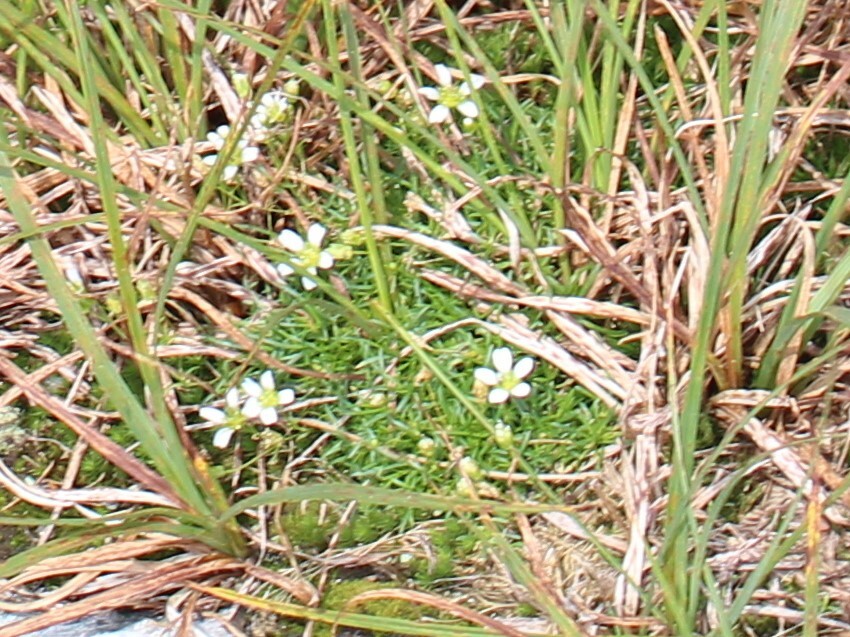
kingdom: Plantae
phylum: Tracheophyta
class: Magnoliopsida
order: Caryophyllales
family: Caryophyllaceae
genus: Geocarpon
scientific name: Geocarpon groenlandicum
